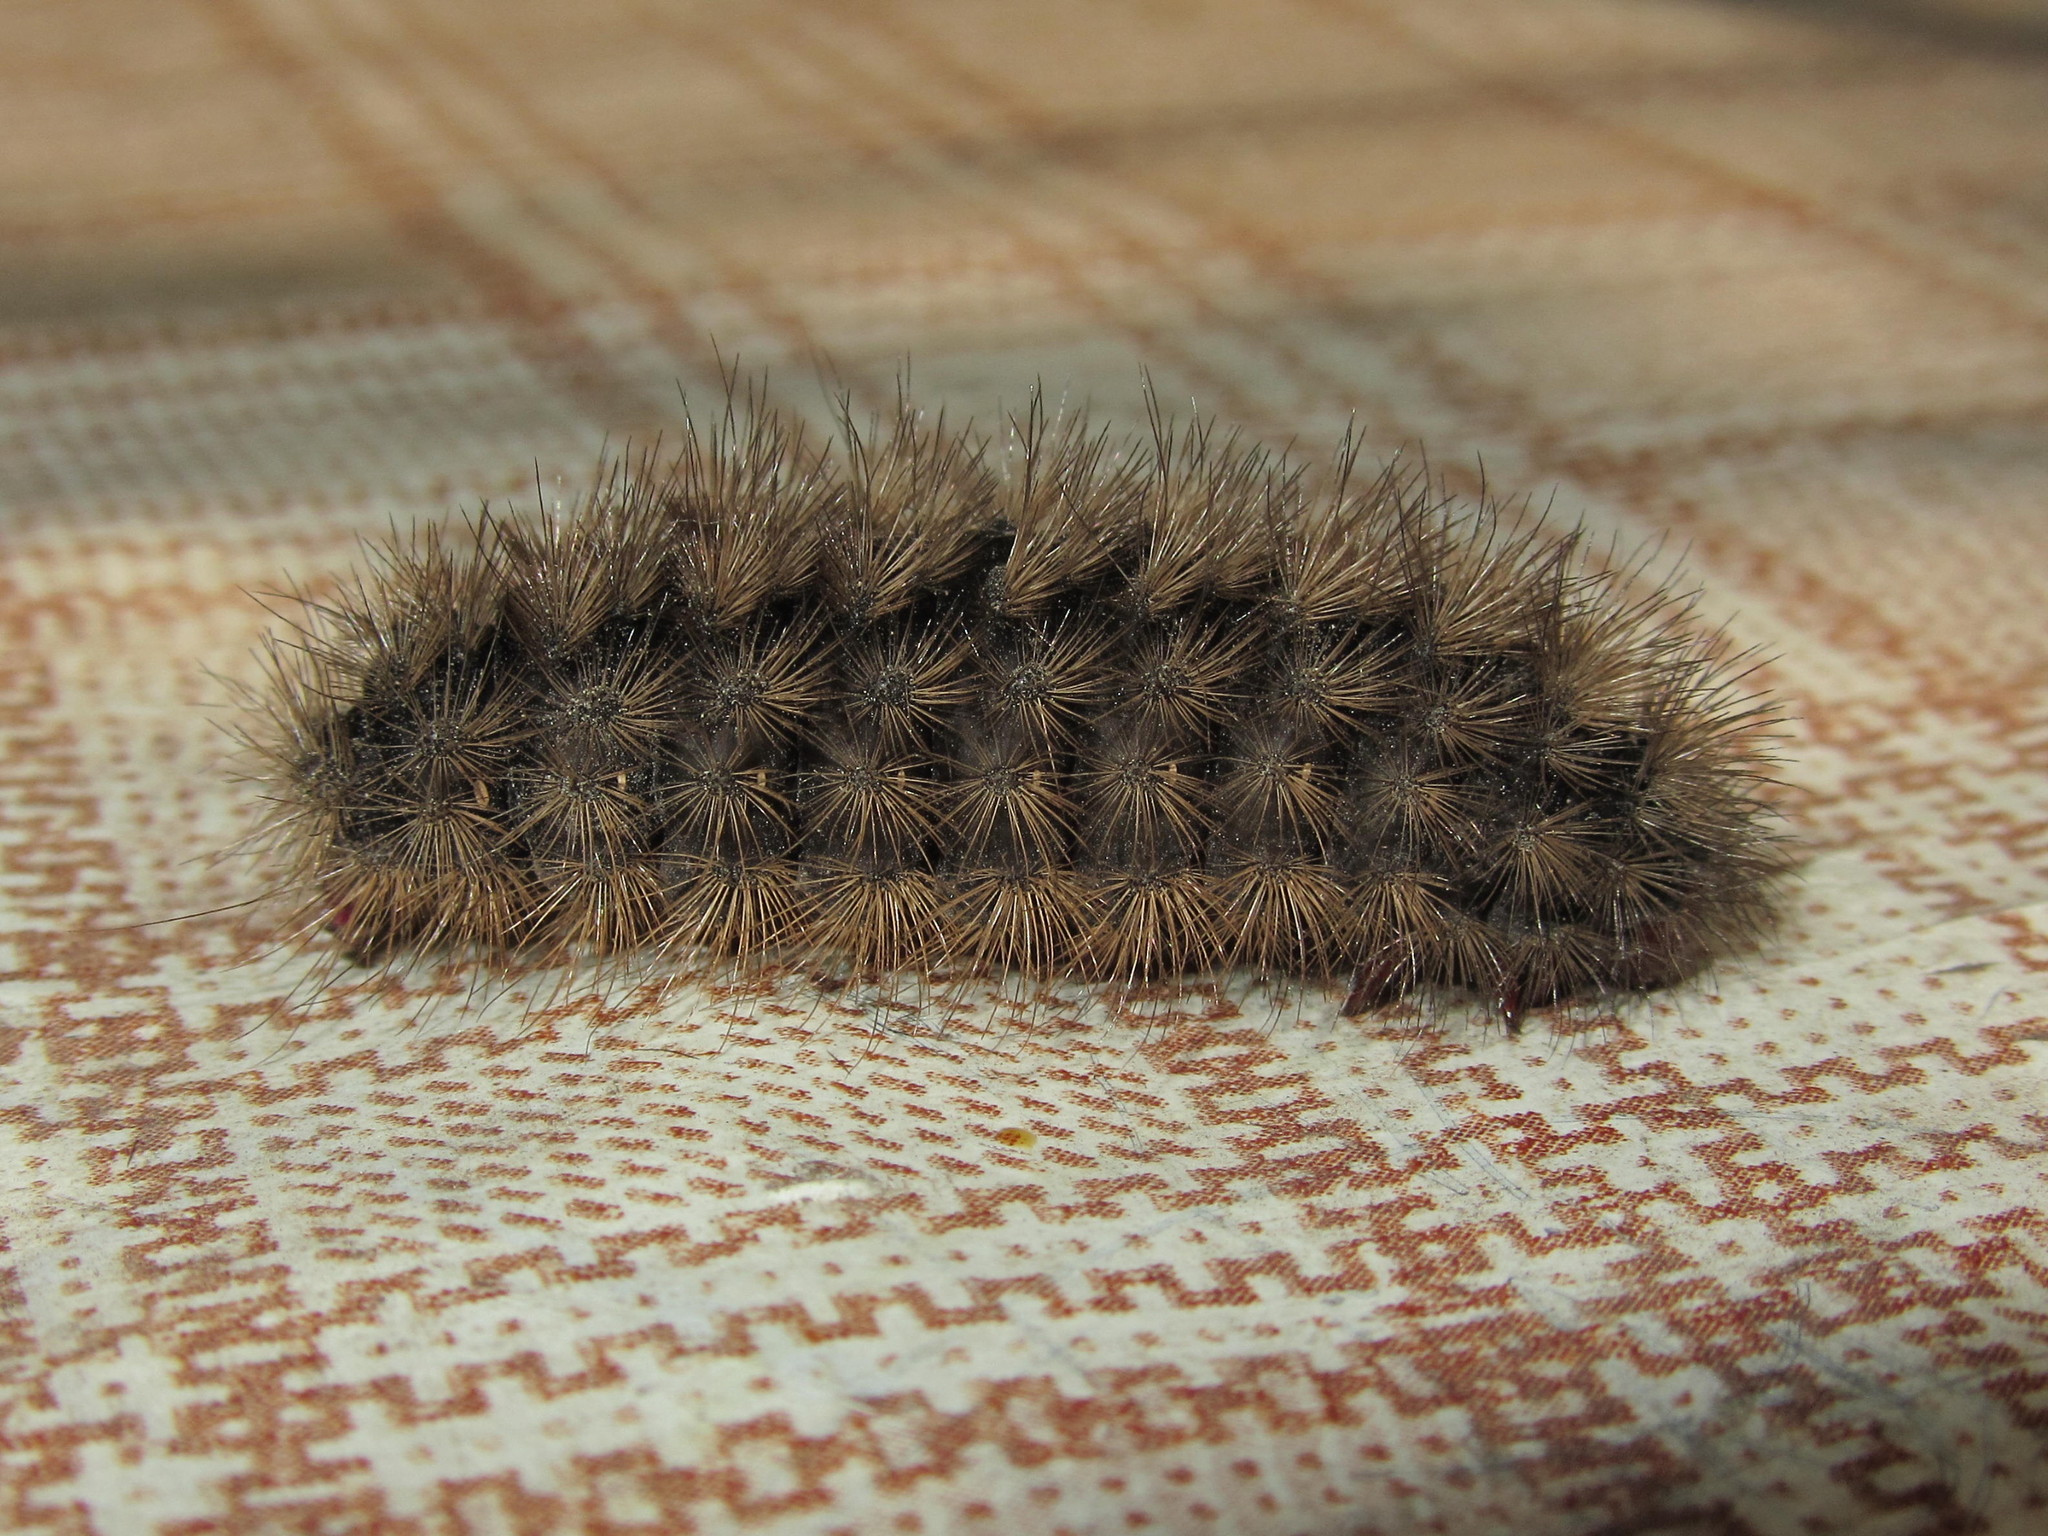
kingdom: Animalia
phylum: Arthropoda
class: Insecta
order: Lepidoptera
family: Erebidae
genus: Epicallia
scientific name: Epicallia villica
